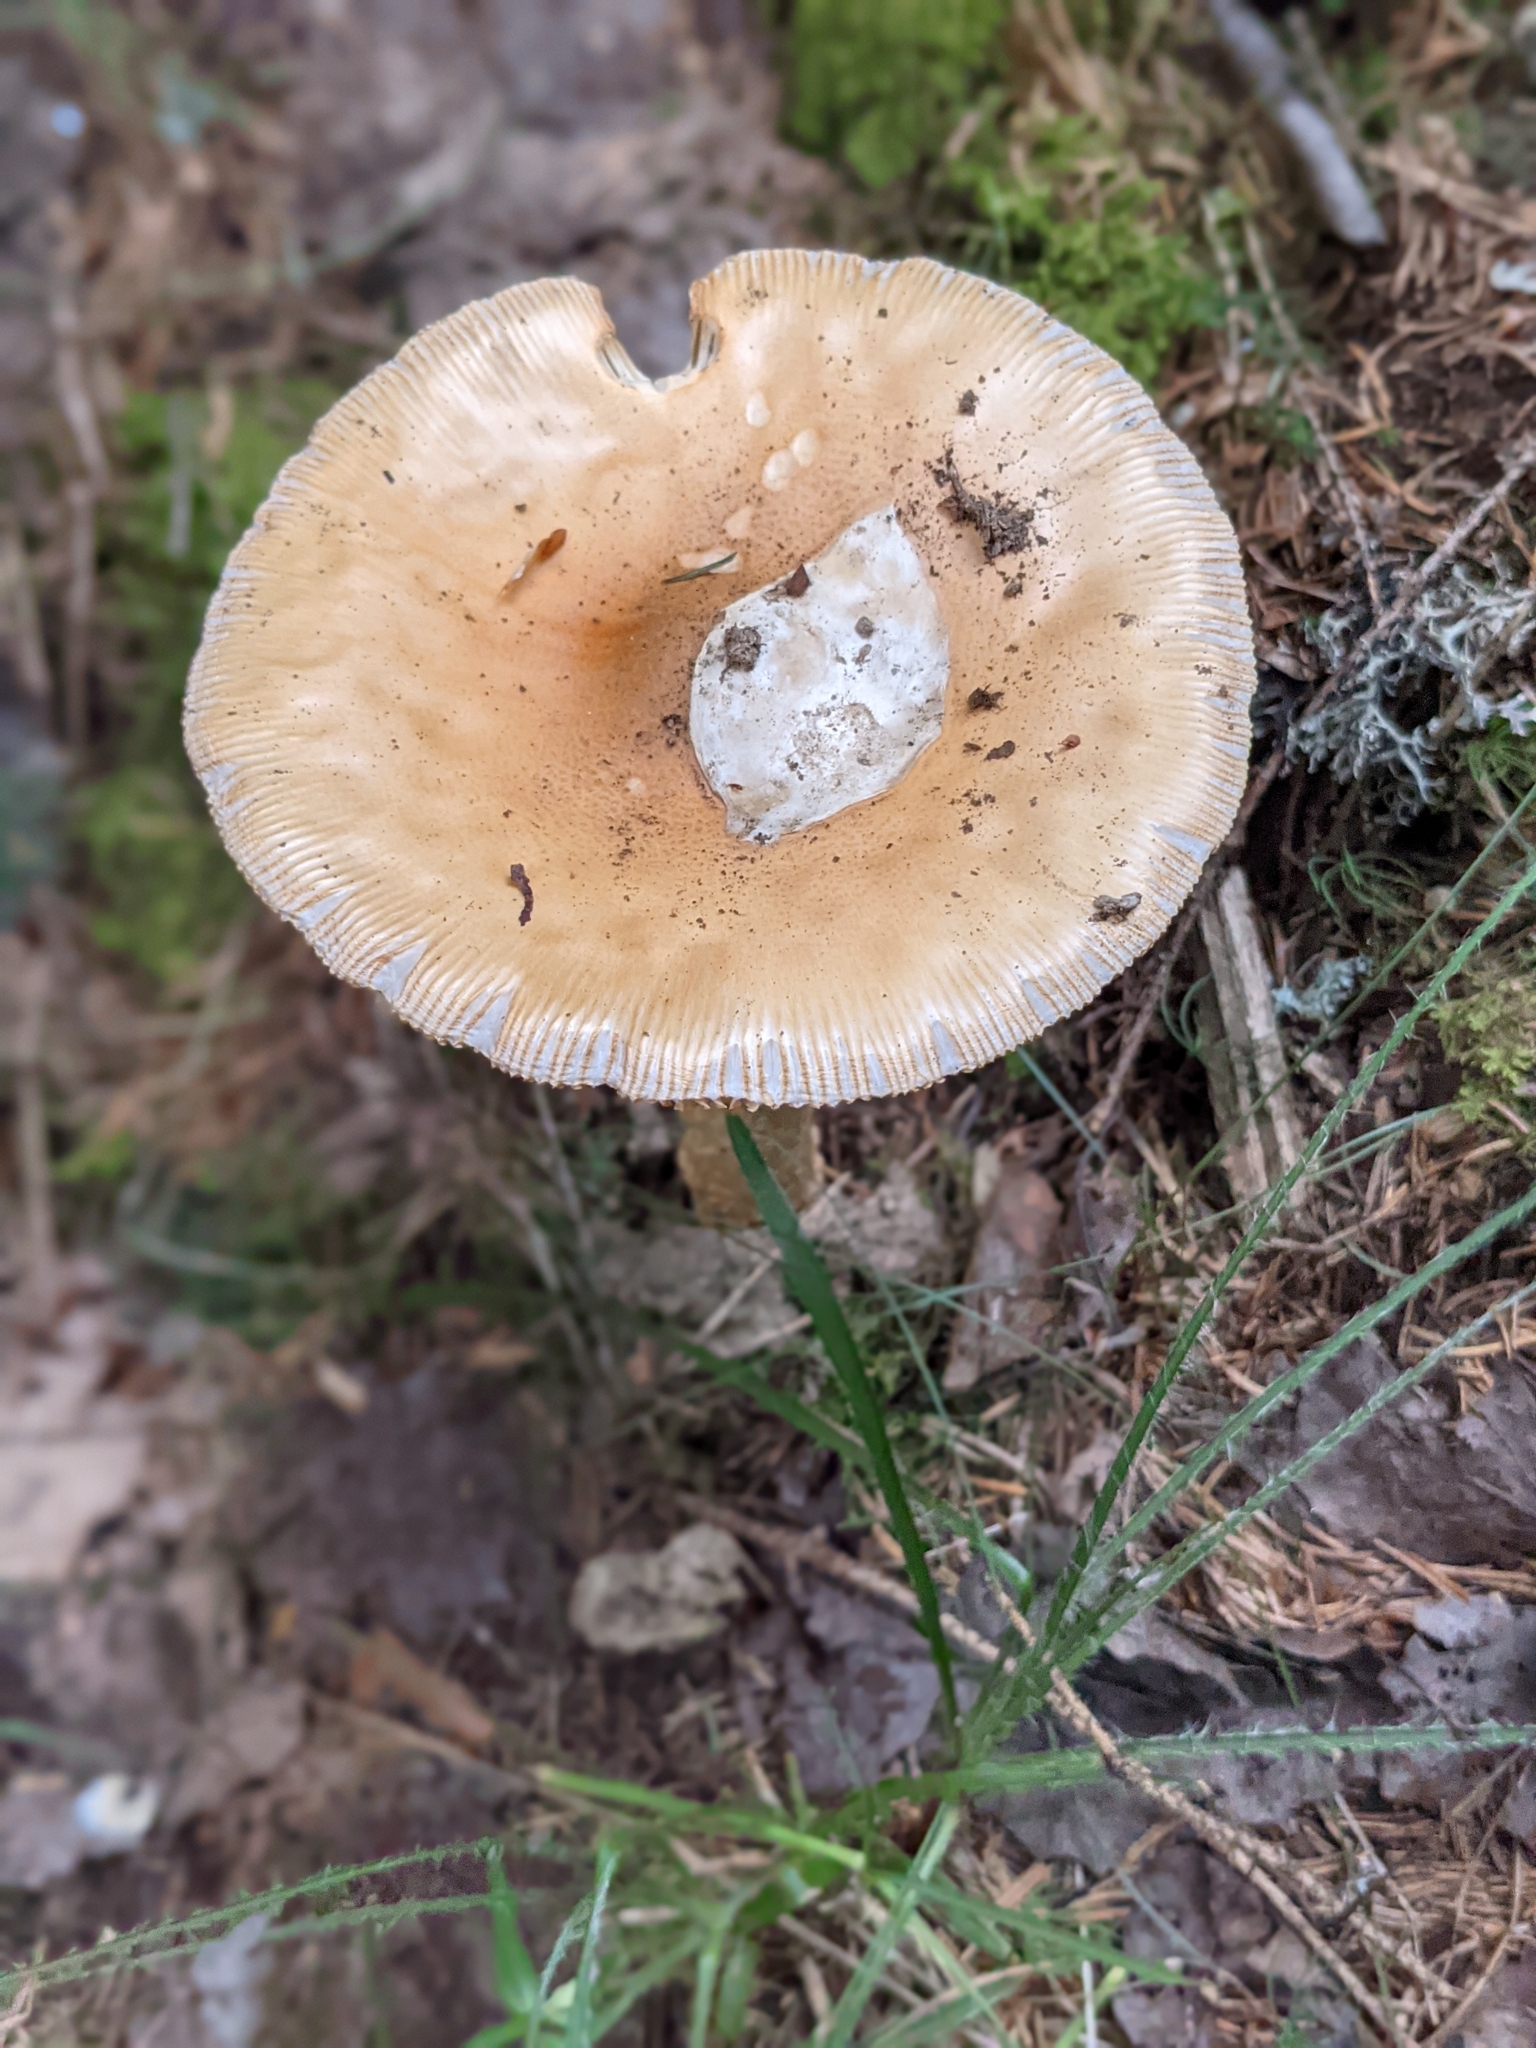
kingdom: Fungi
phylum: Basidiomycota
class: Agaricomycetes
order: Agaricales
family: Amanitaceae
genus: Amanita
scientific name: Amanita fulva
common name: Tawny grisette
